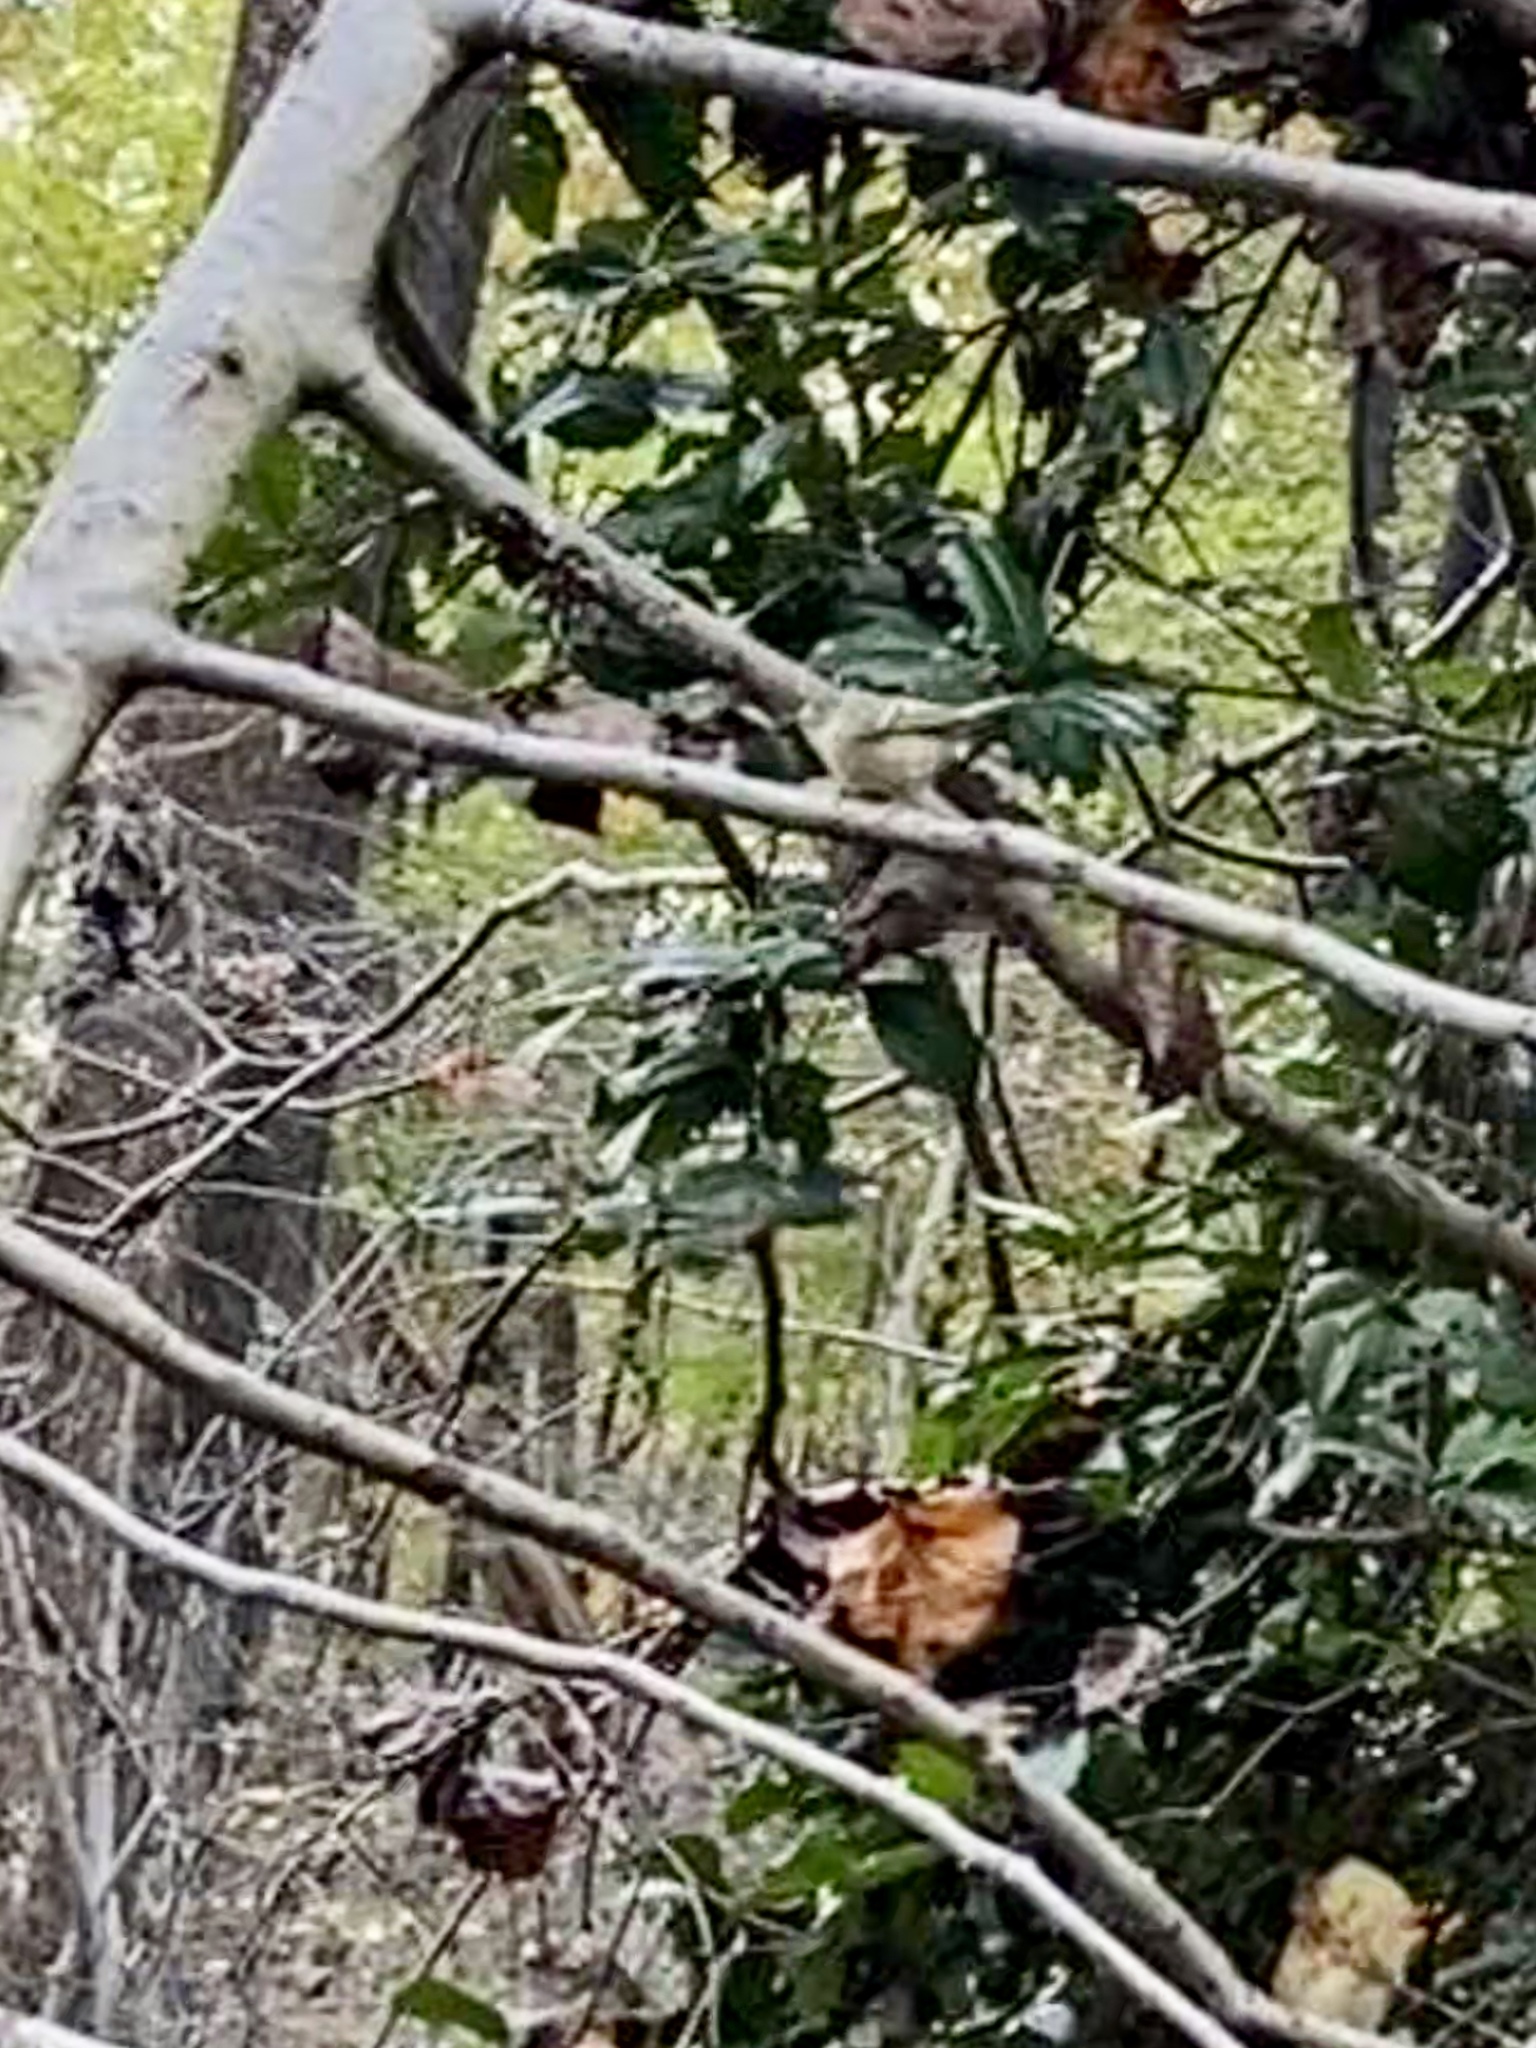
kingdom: Animalia
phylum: Chordata
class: Aves
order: Passeriformes
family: Regulidae
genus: Regulus
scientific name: Regulus calendula
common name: Ruby-crowned kinglet
